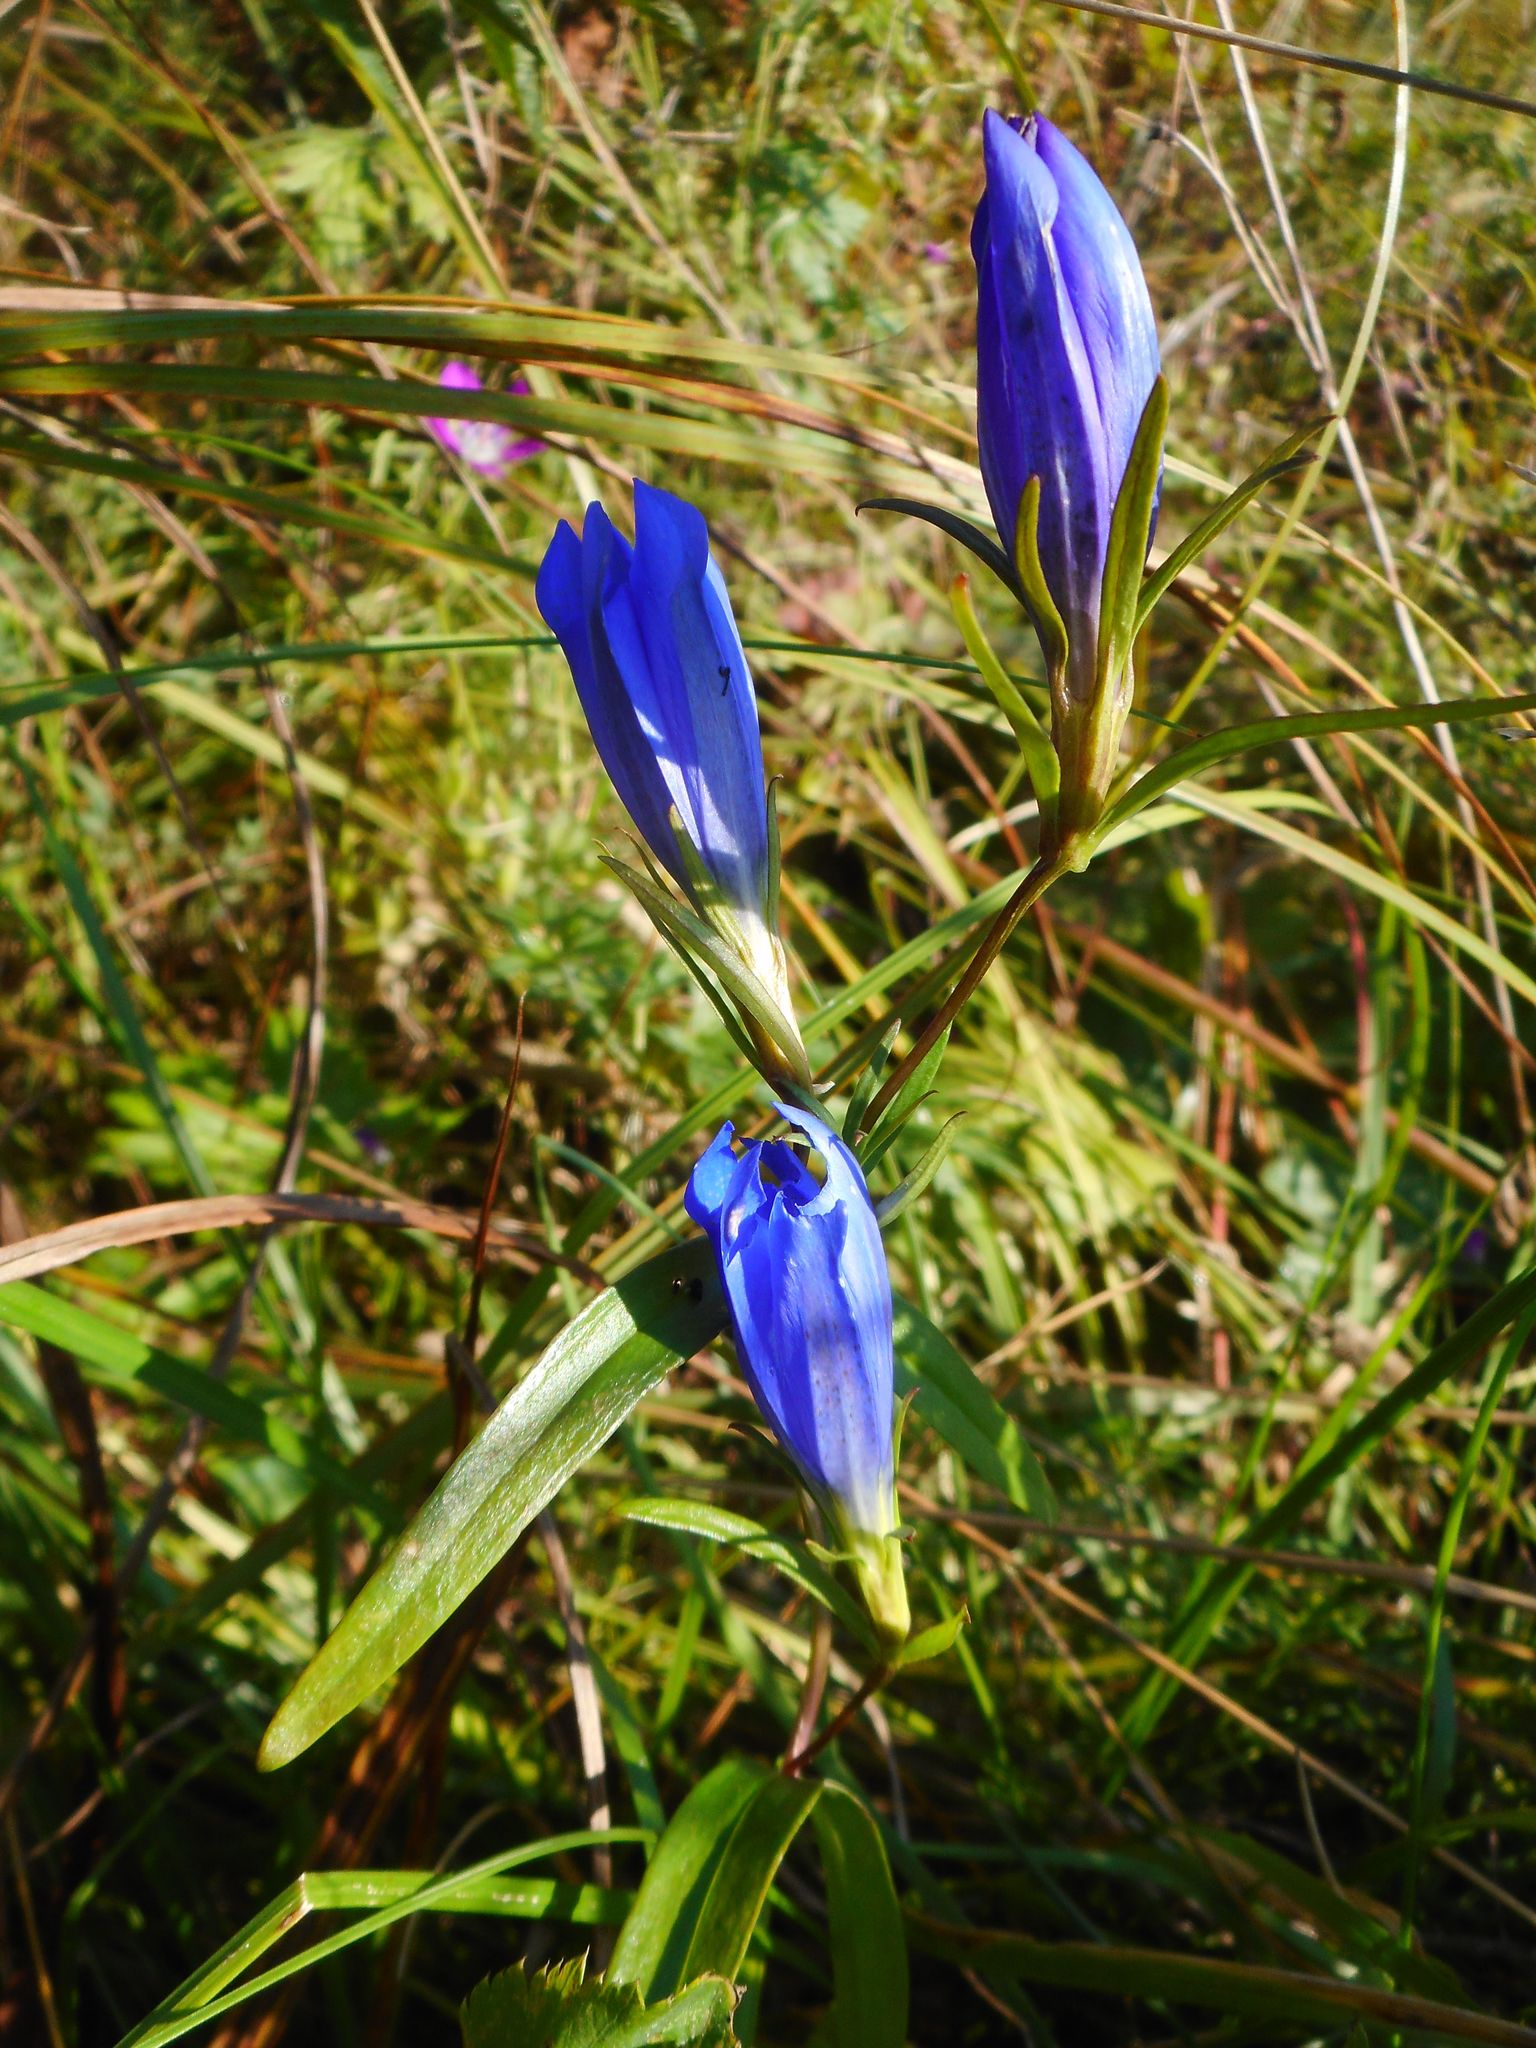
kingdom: Plantae
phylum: Tracheophyta
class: Magnoliopsida
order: Gentianales
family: Gentianaceae
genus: Gentiana
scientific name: Gentiana pneumonanthe
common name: Marsh gentian
